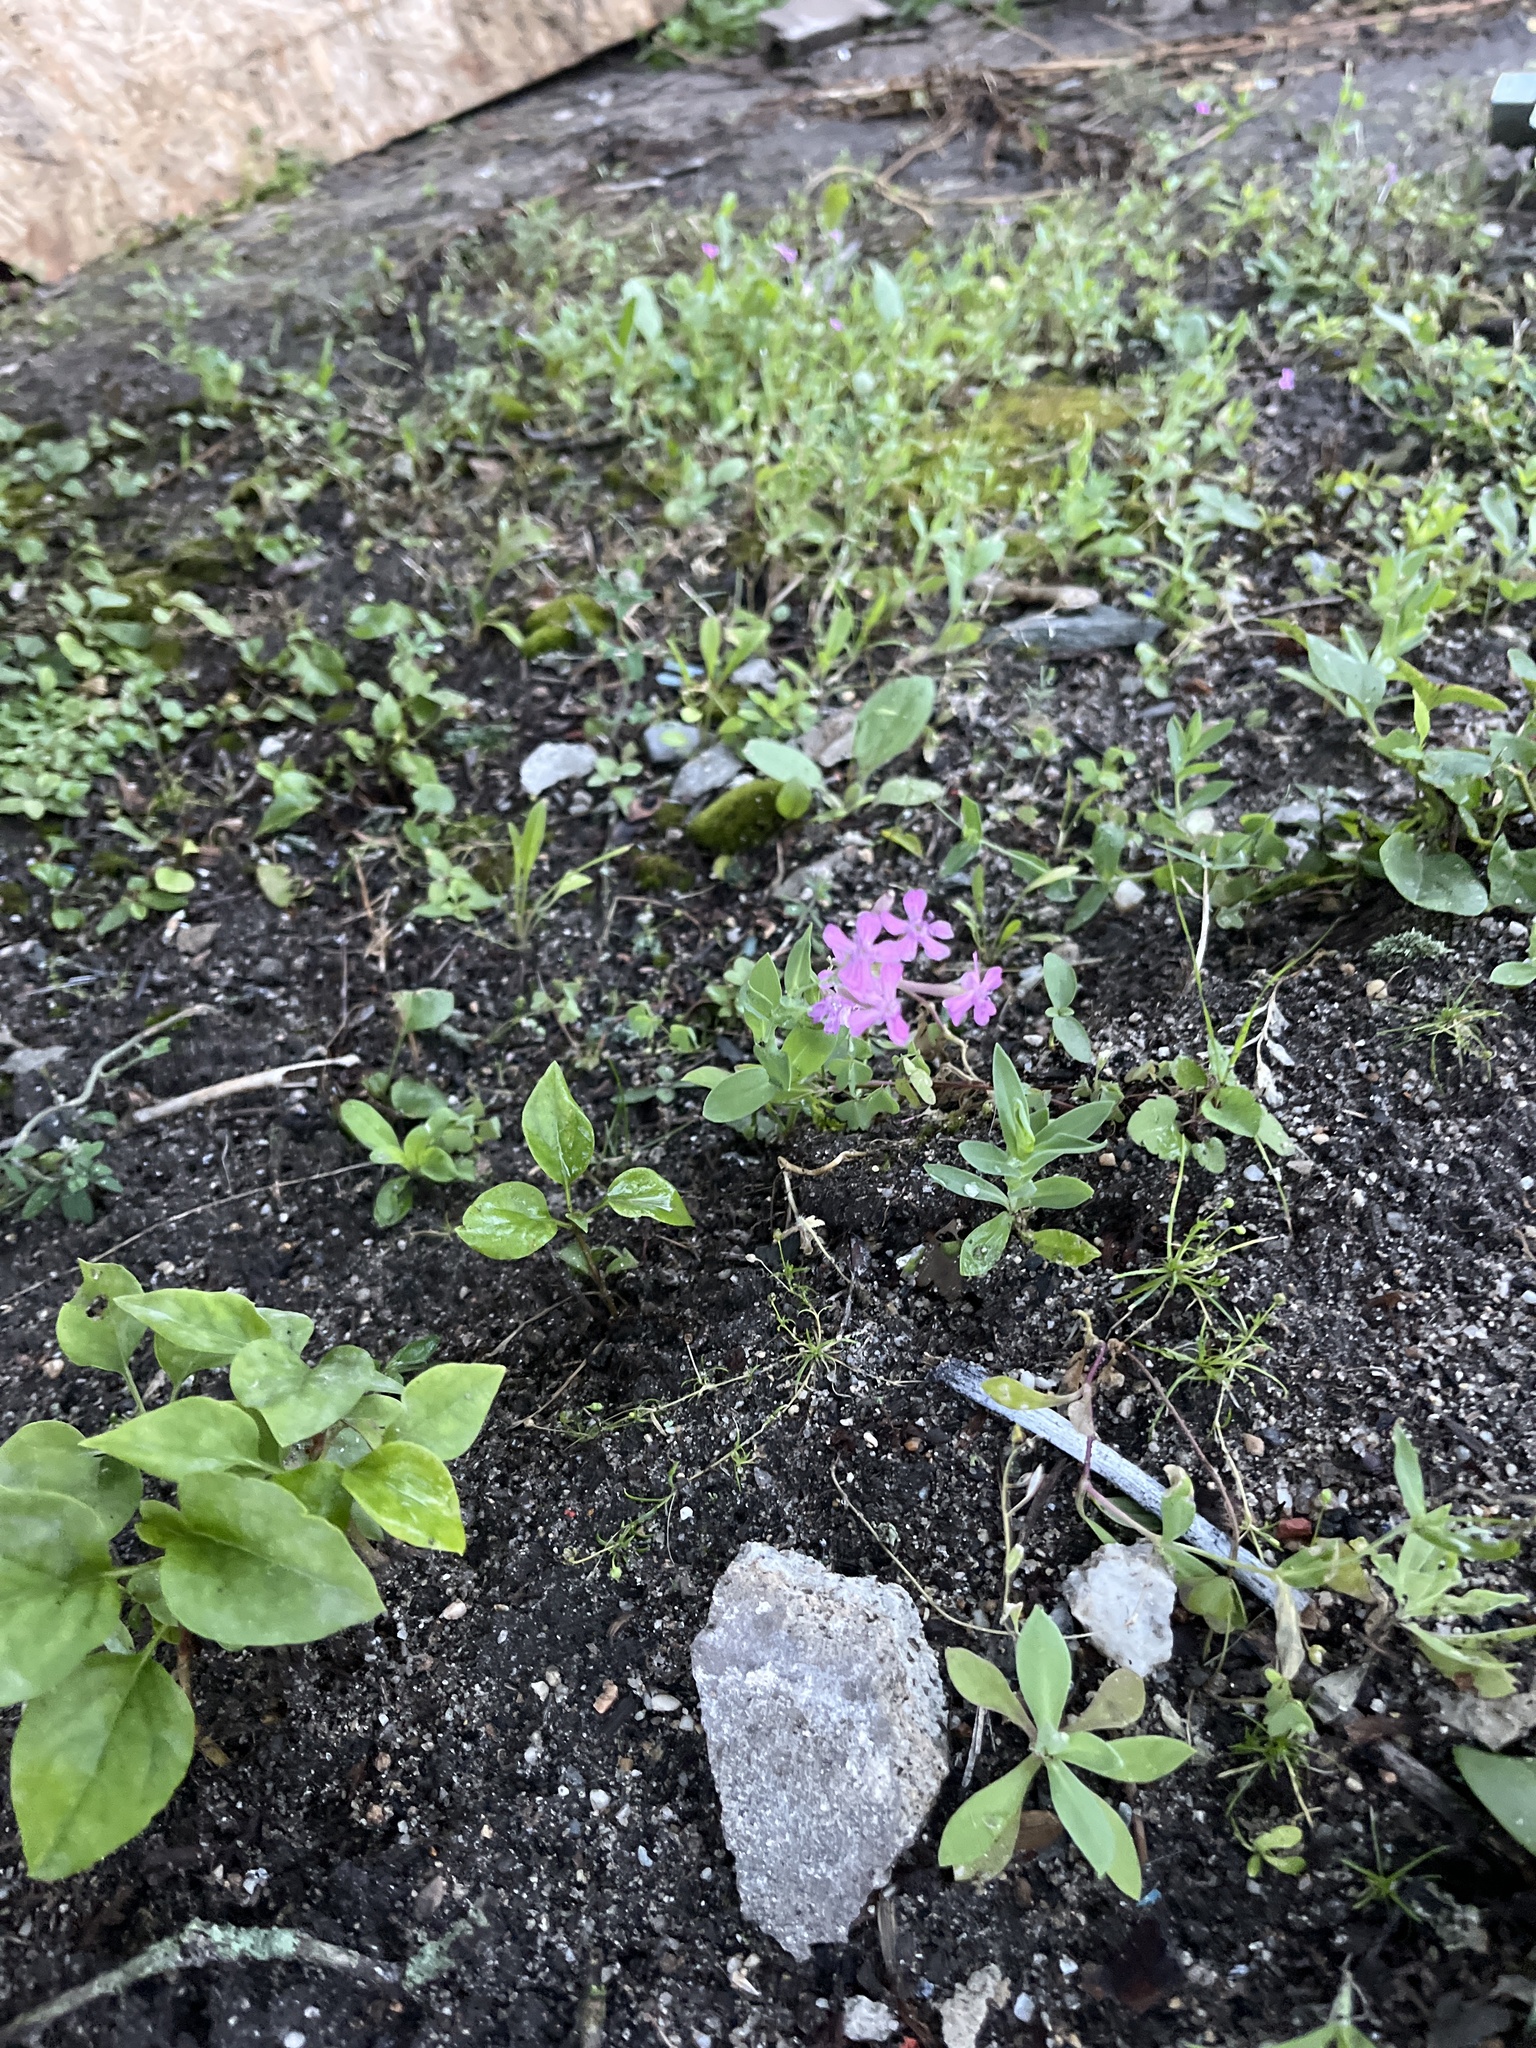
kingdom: Plantae
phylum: Tracheophyta
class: Magnoliopsida
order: Caryophyllales
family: Caryophyllaceae
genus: Atocion
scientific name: Atocion armeria
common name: Sweet william catchfly
